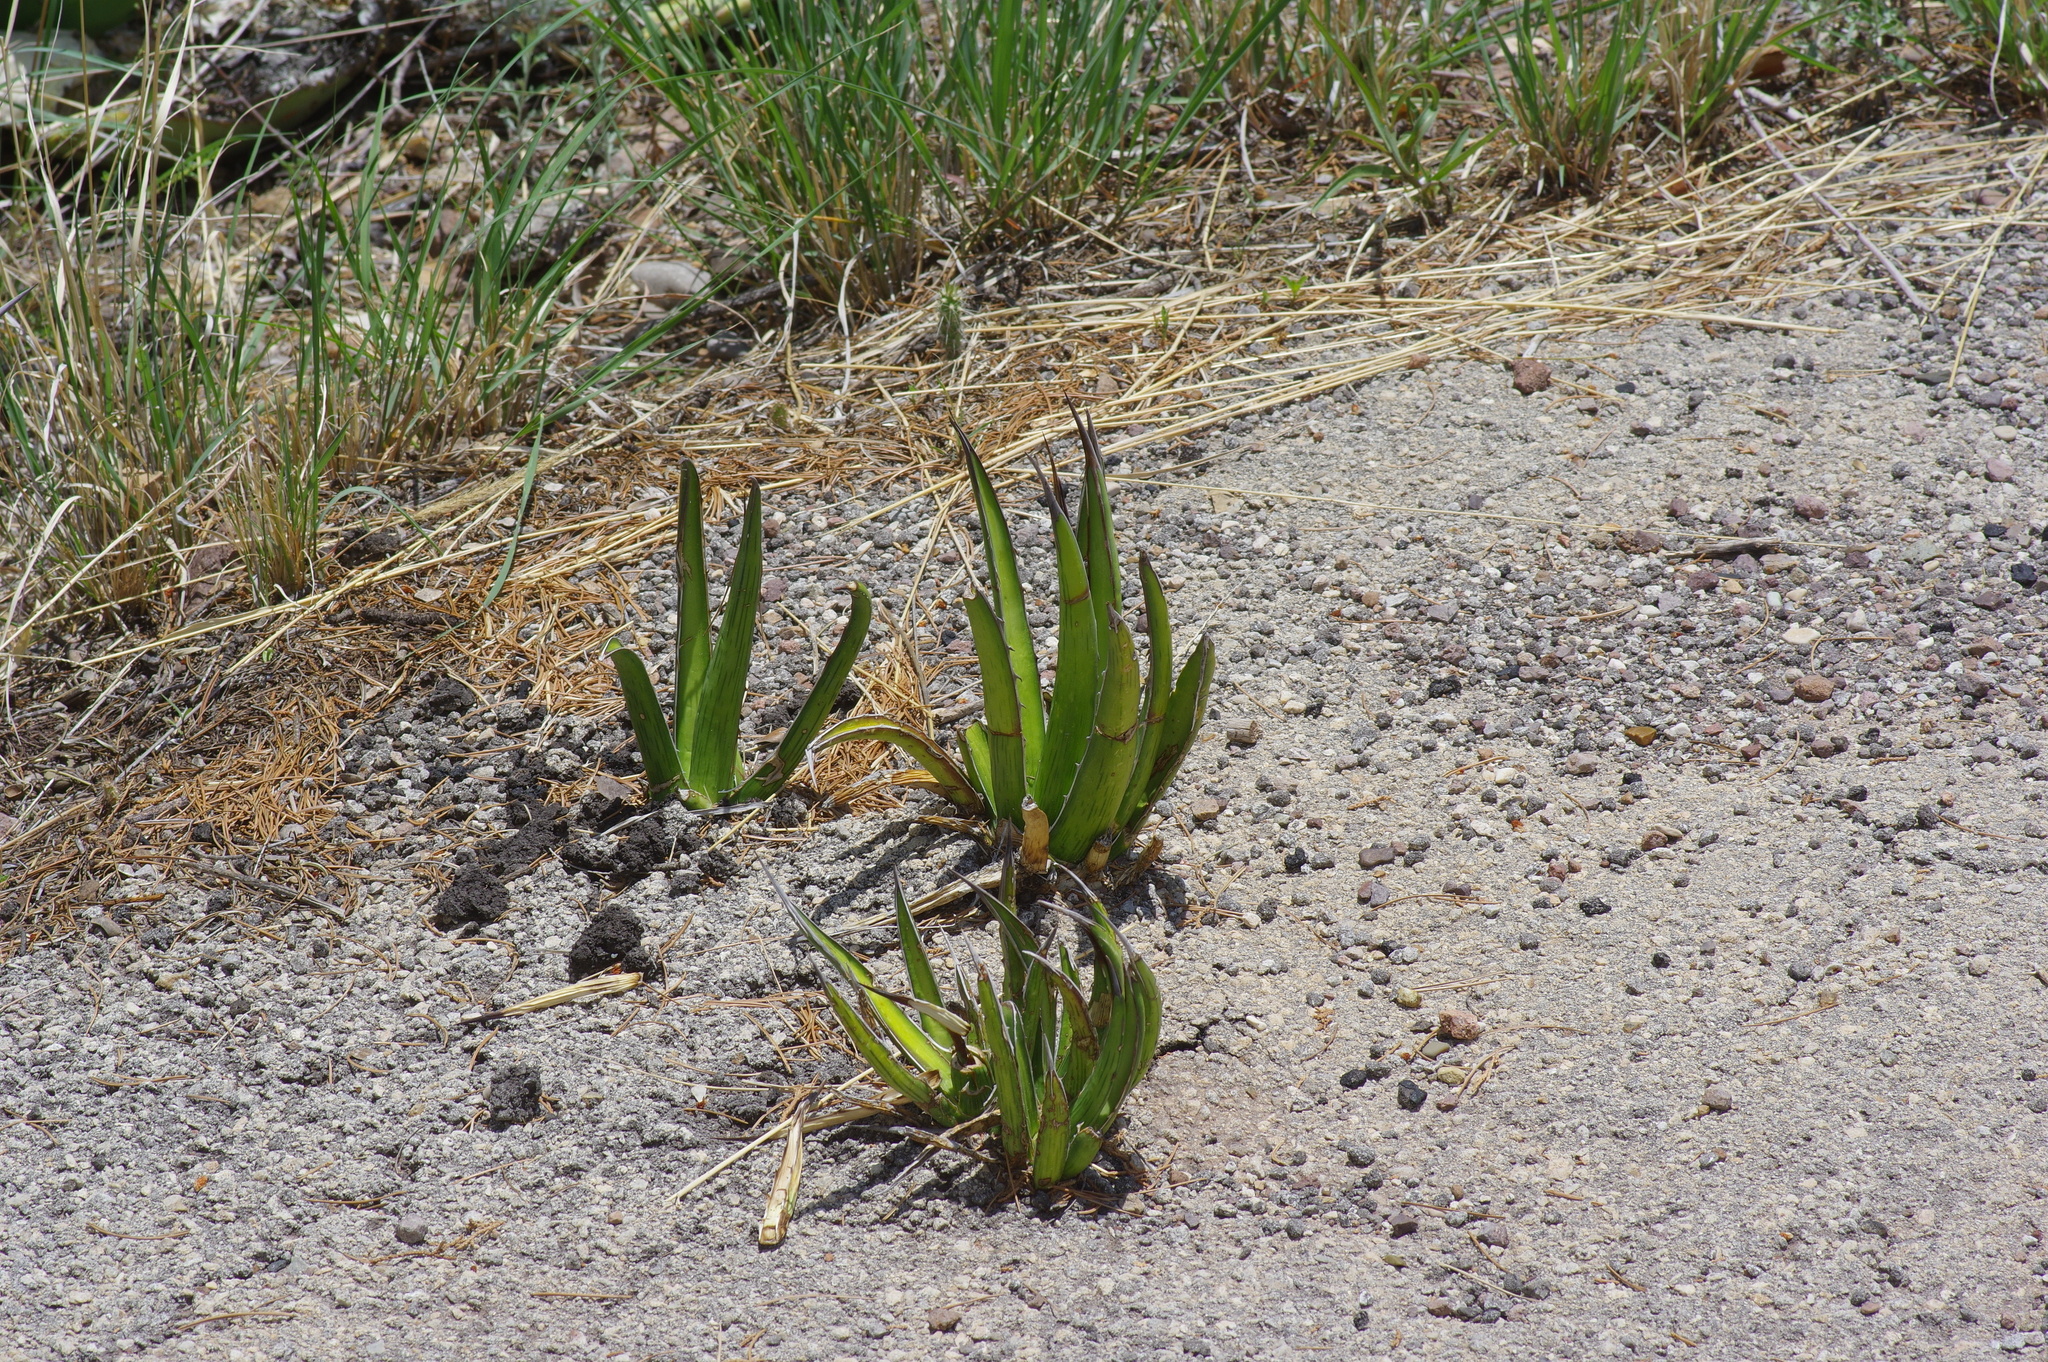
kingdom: Plantae
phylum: Tracheophyta
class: Liliopsida
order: Asparagales
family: Asparagaceae
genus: Agave
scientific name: Agave lechuguilla
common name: Lecheguilla agave
